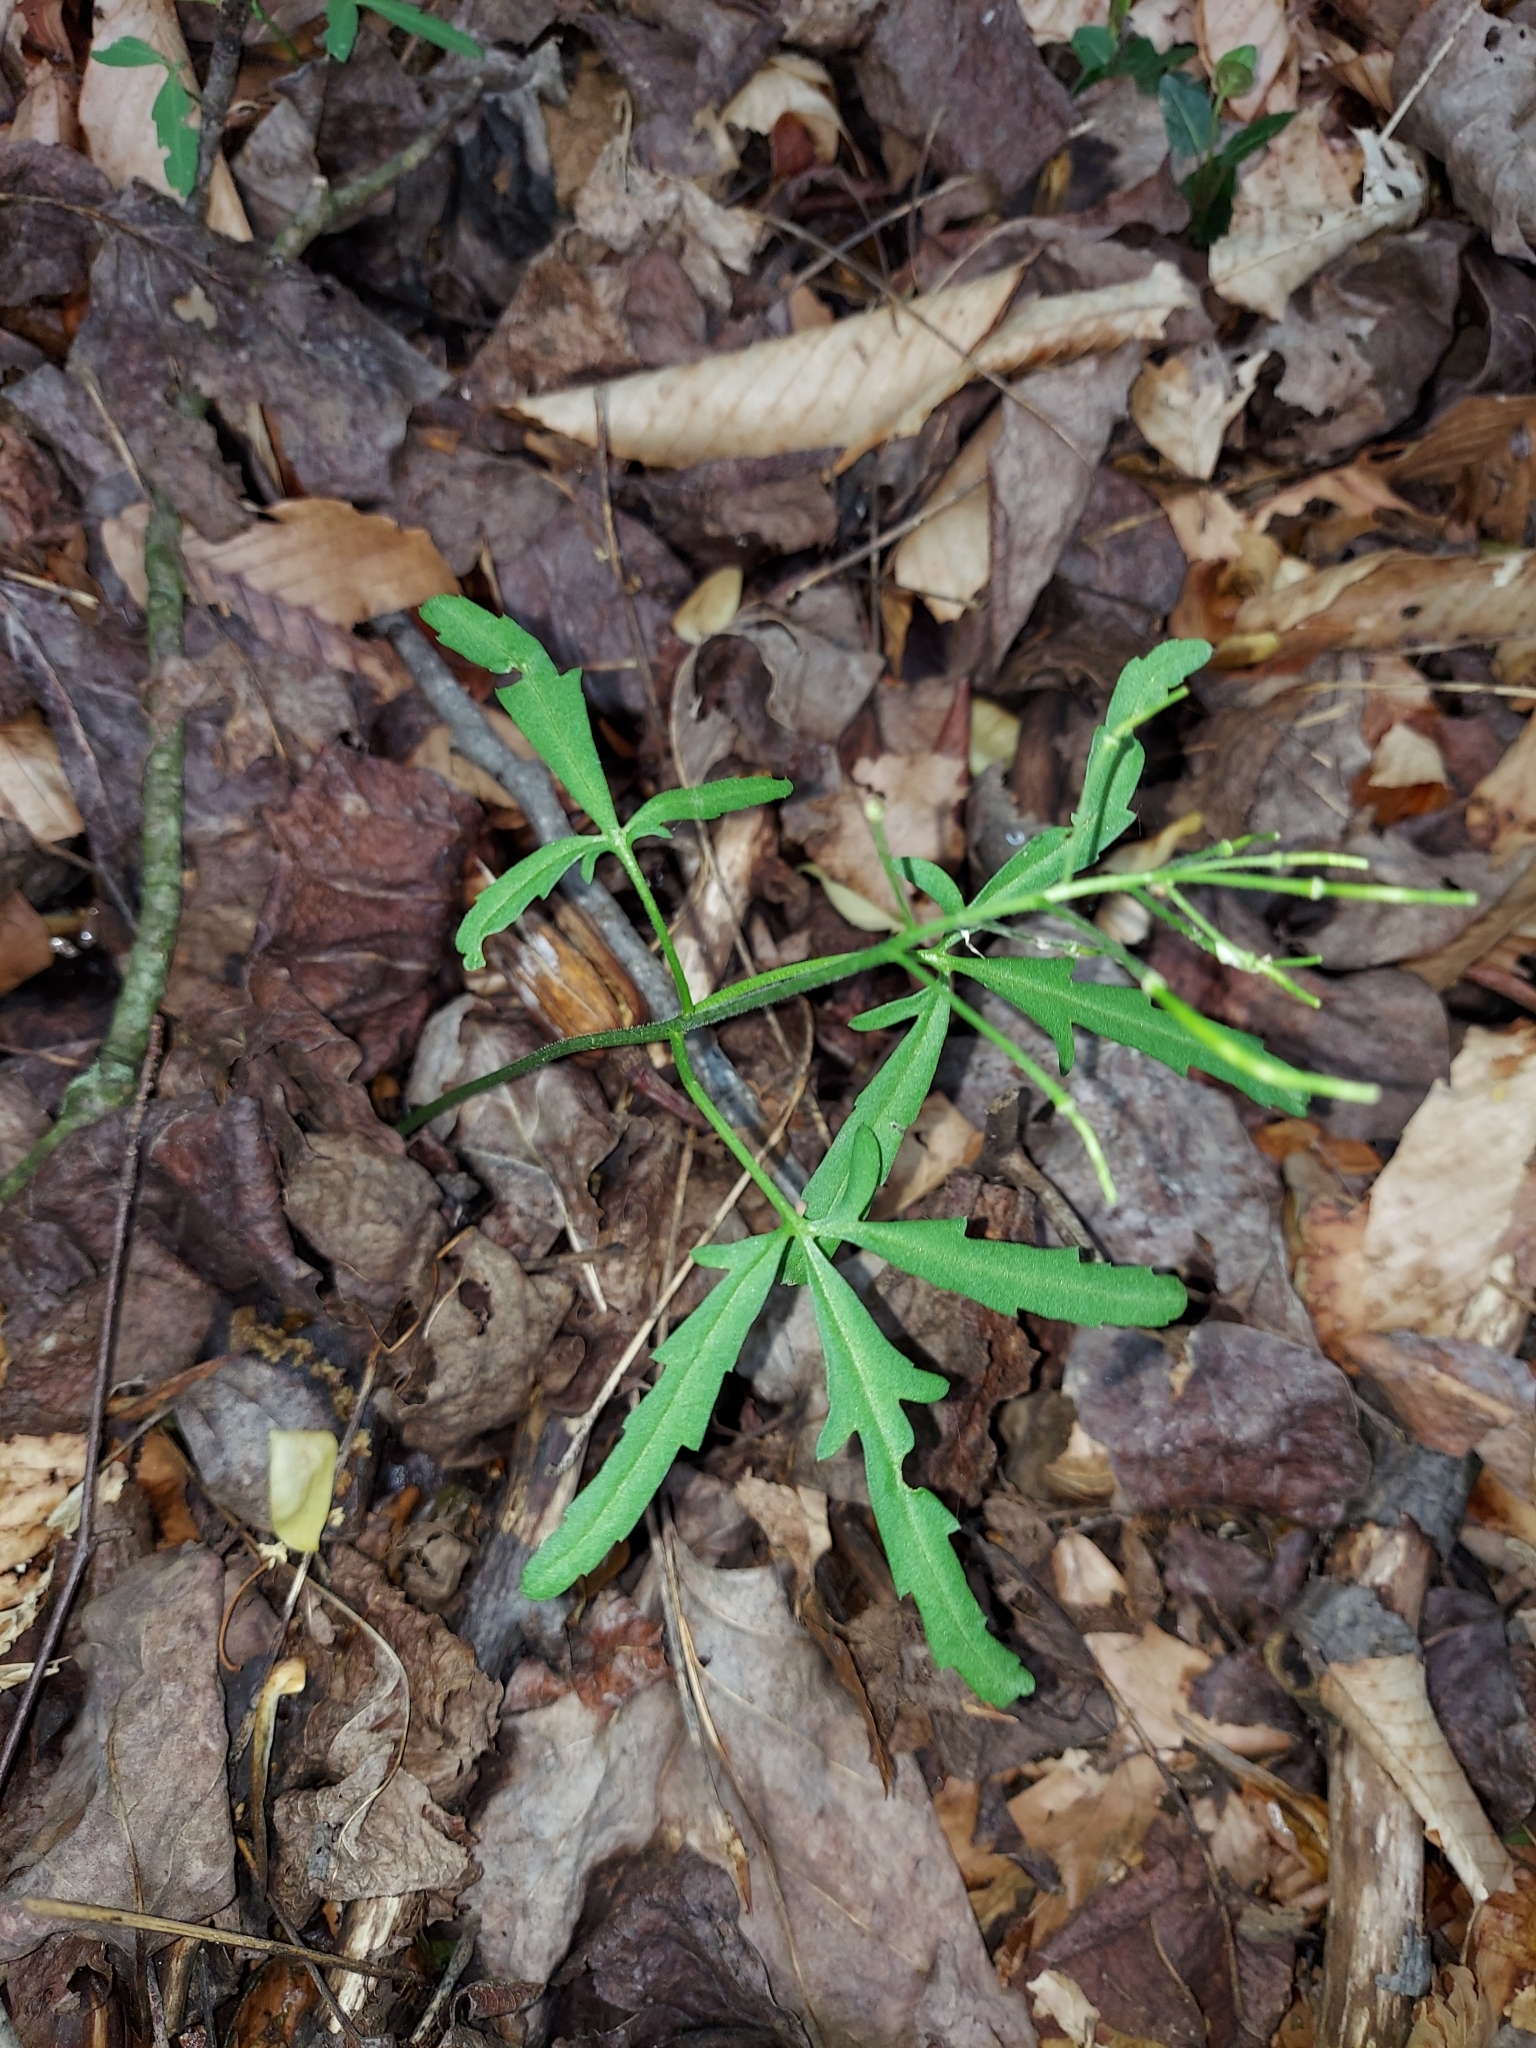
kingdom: Plantae
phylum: Tracheophyta
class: Magnoliopsida
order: Brassicales
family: Brassicaceae
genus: Cardamine
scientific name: Cardamine concatenata
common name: Cut-leaf toothcup
